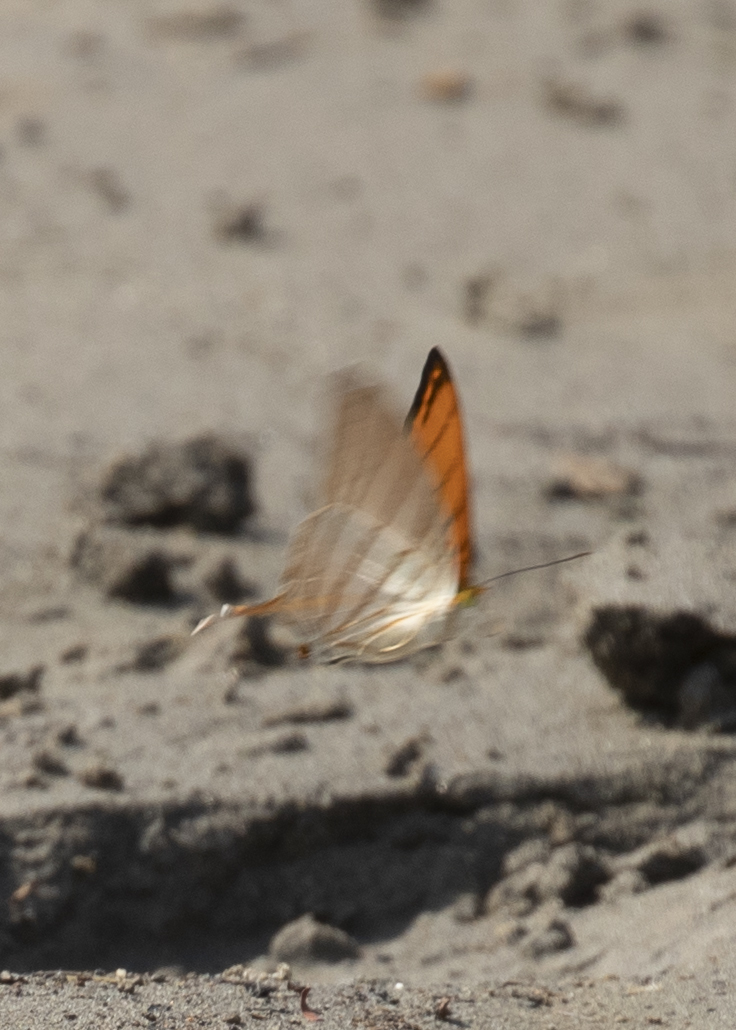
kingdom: Animalia
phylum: Arthropoda
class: Insecta
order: Lepidoptera
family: Nymphalidae
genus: Marpesia
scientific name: Marpesia berania
